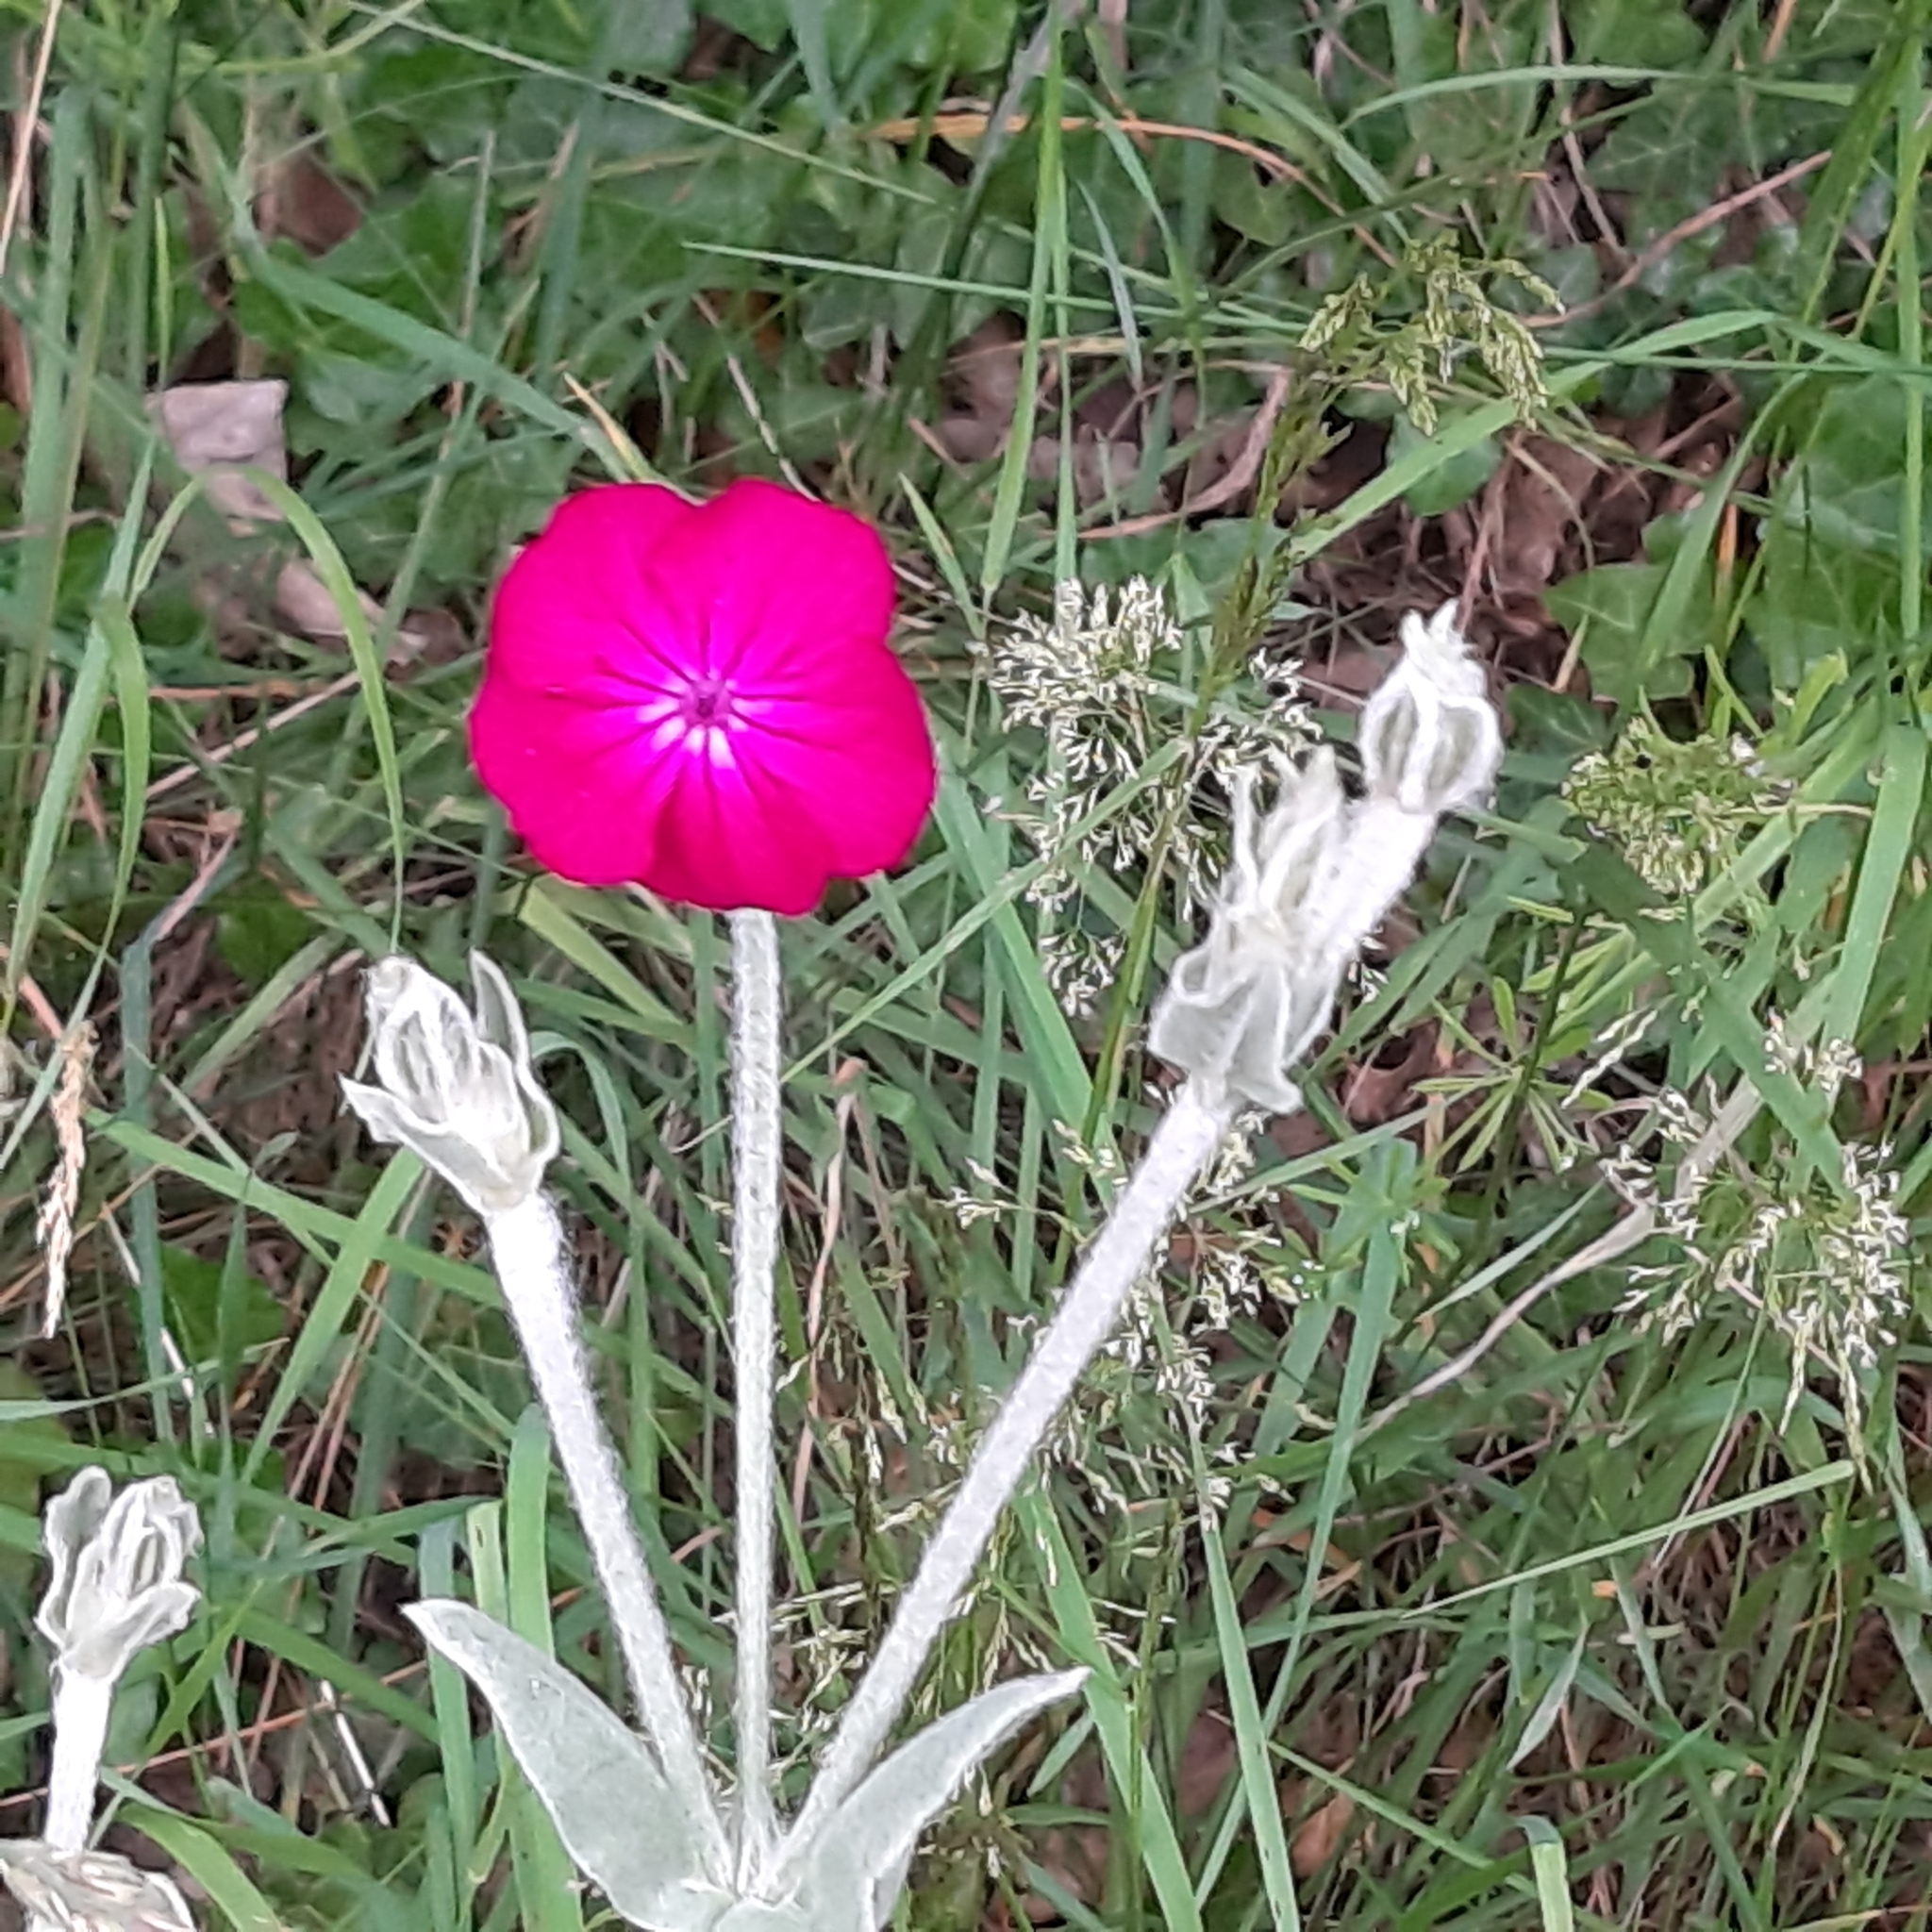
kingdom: Plantae
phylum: Tracheophyta
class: Magnoliopsida
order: Caryophyllales
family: Caryophyllaceae
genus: Silene
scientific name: Silene coronaria
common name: Rose campion
